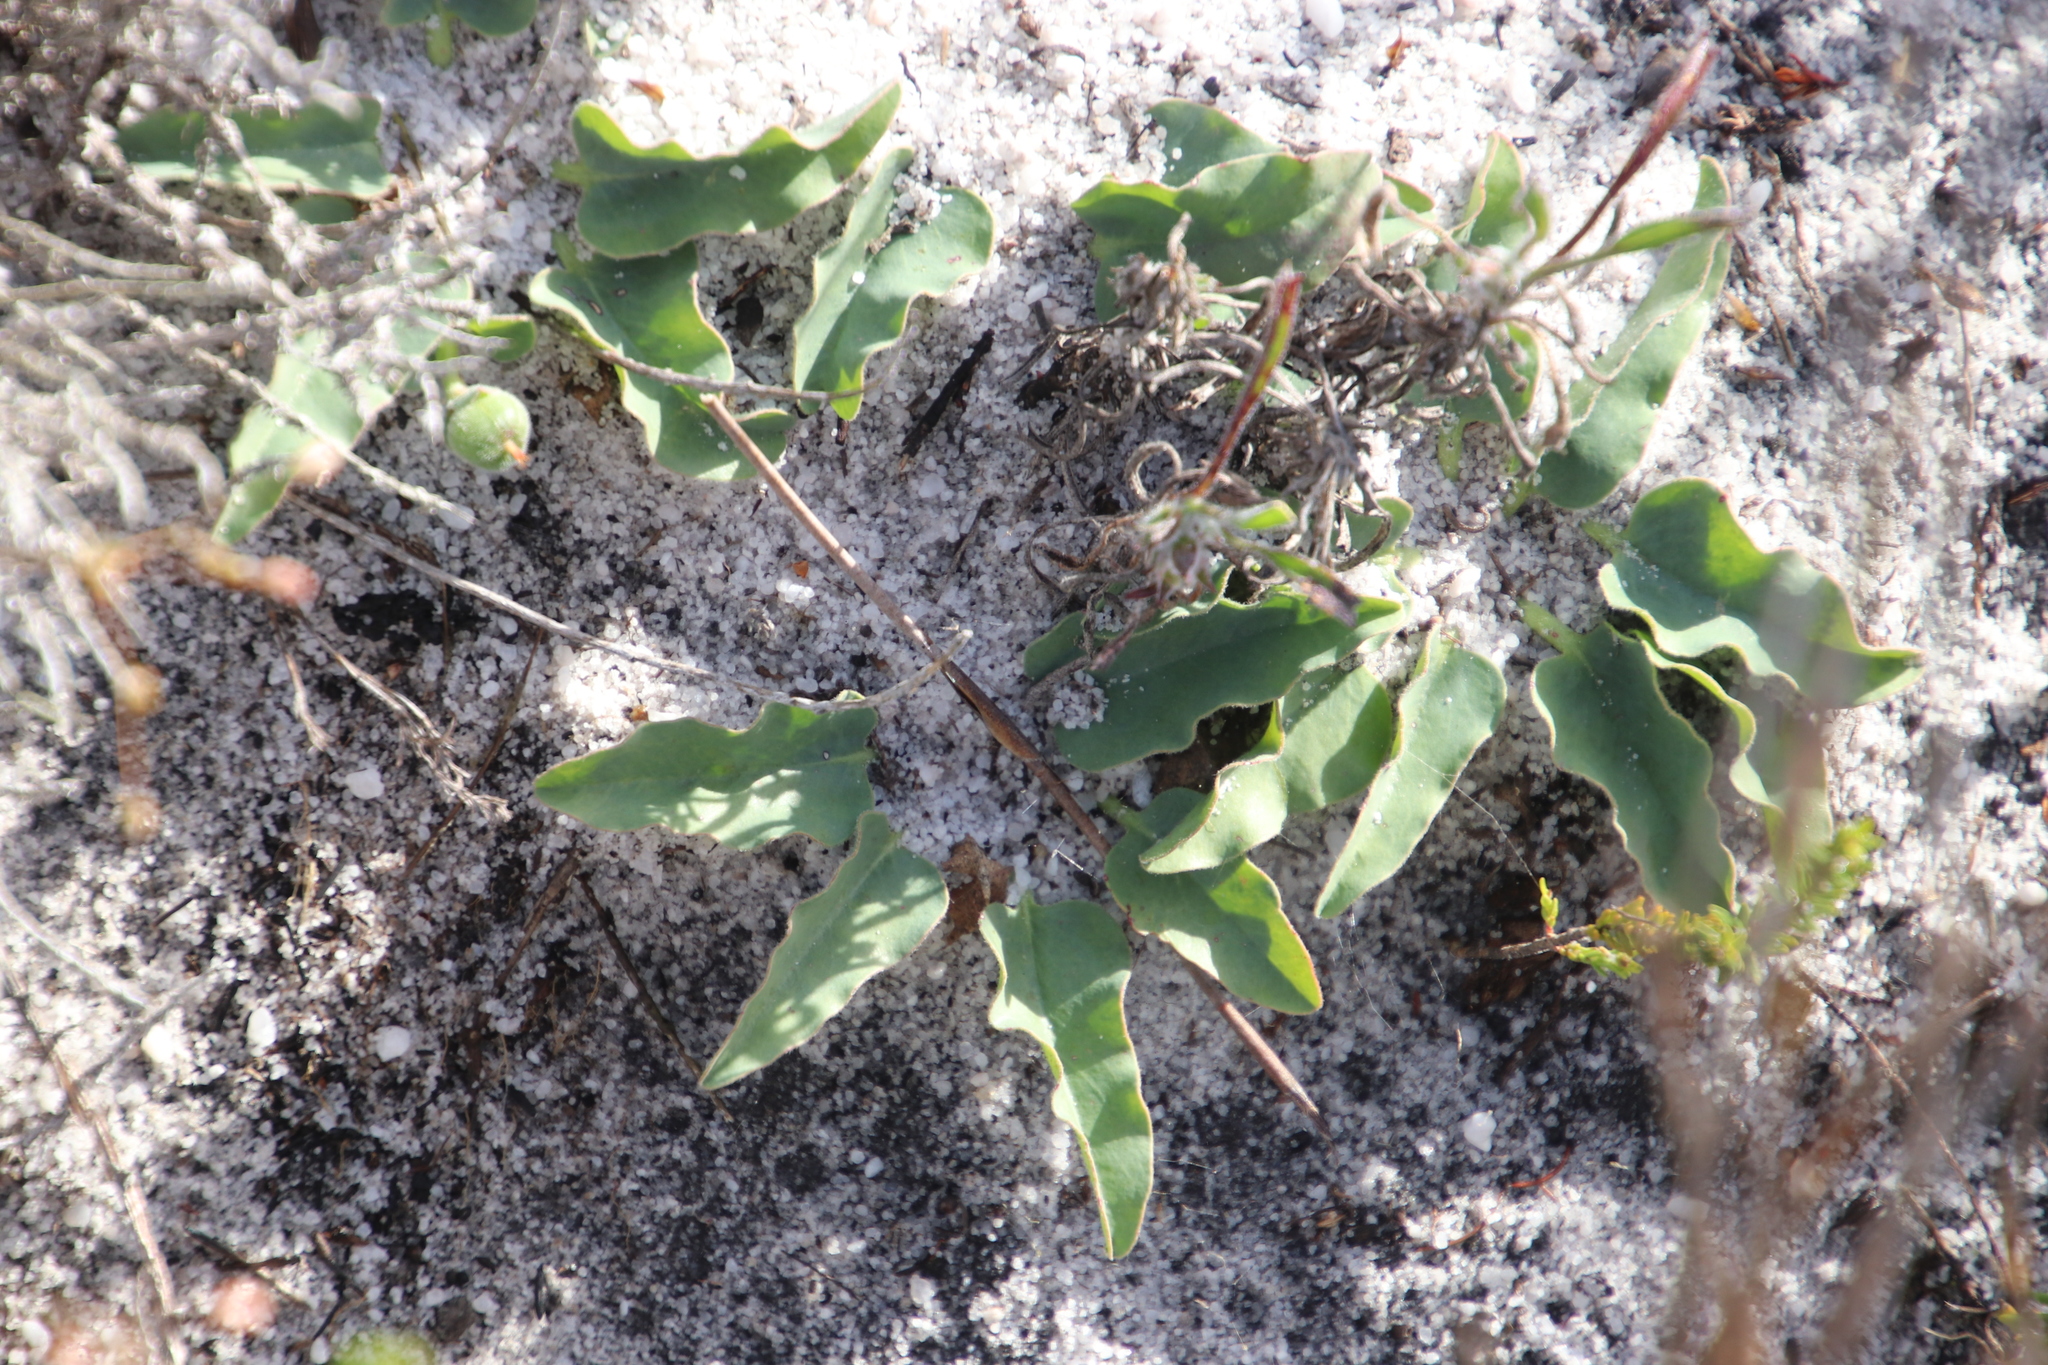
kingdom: Plantae
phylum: Tracheophyta
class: Magnoliopsida
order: Malpighiales
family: Euphorbiaceae
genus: Euphorbia
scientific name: Euphorbia tuberosa
